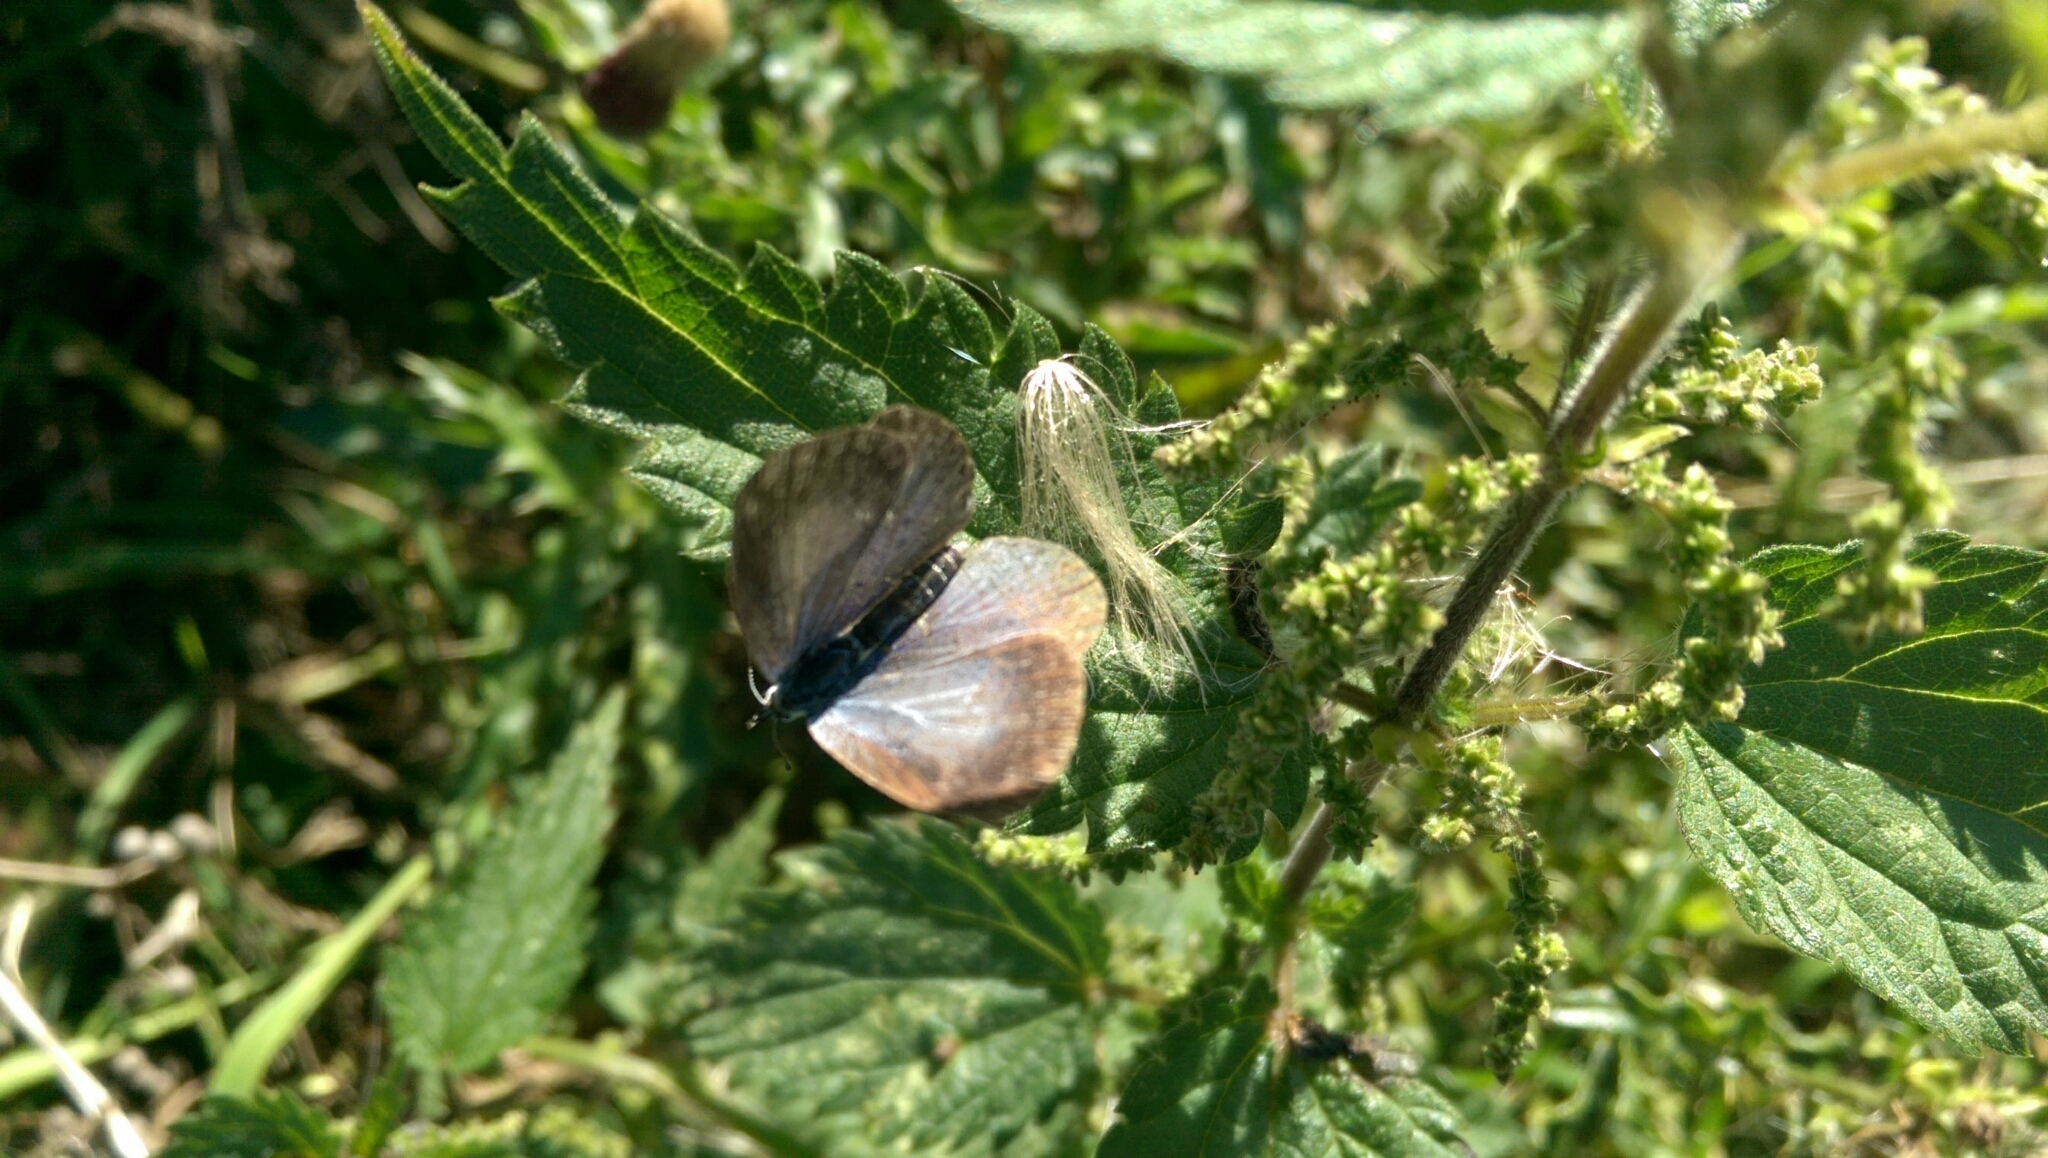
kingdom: Animalia
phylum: Arthropoda
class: Insecta
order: Lepidoptera
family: Lycaenidae
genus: Celastrina
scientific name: Celastrina argiolus
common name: Holly blue
